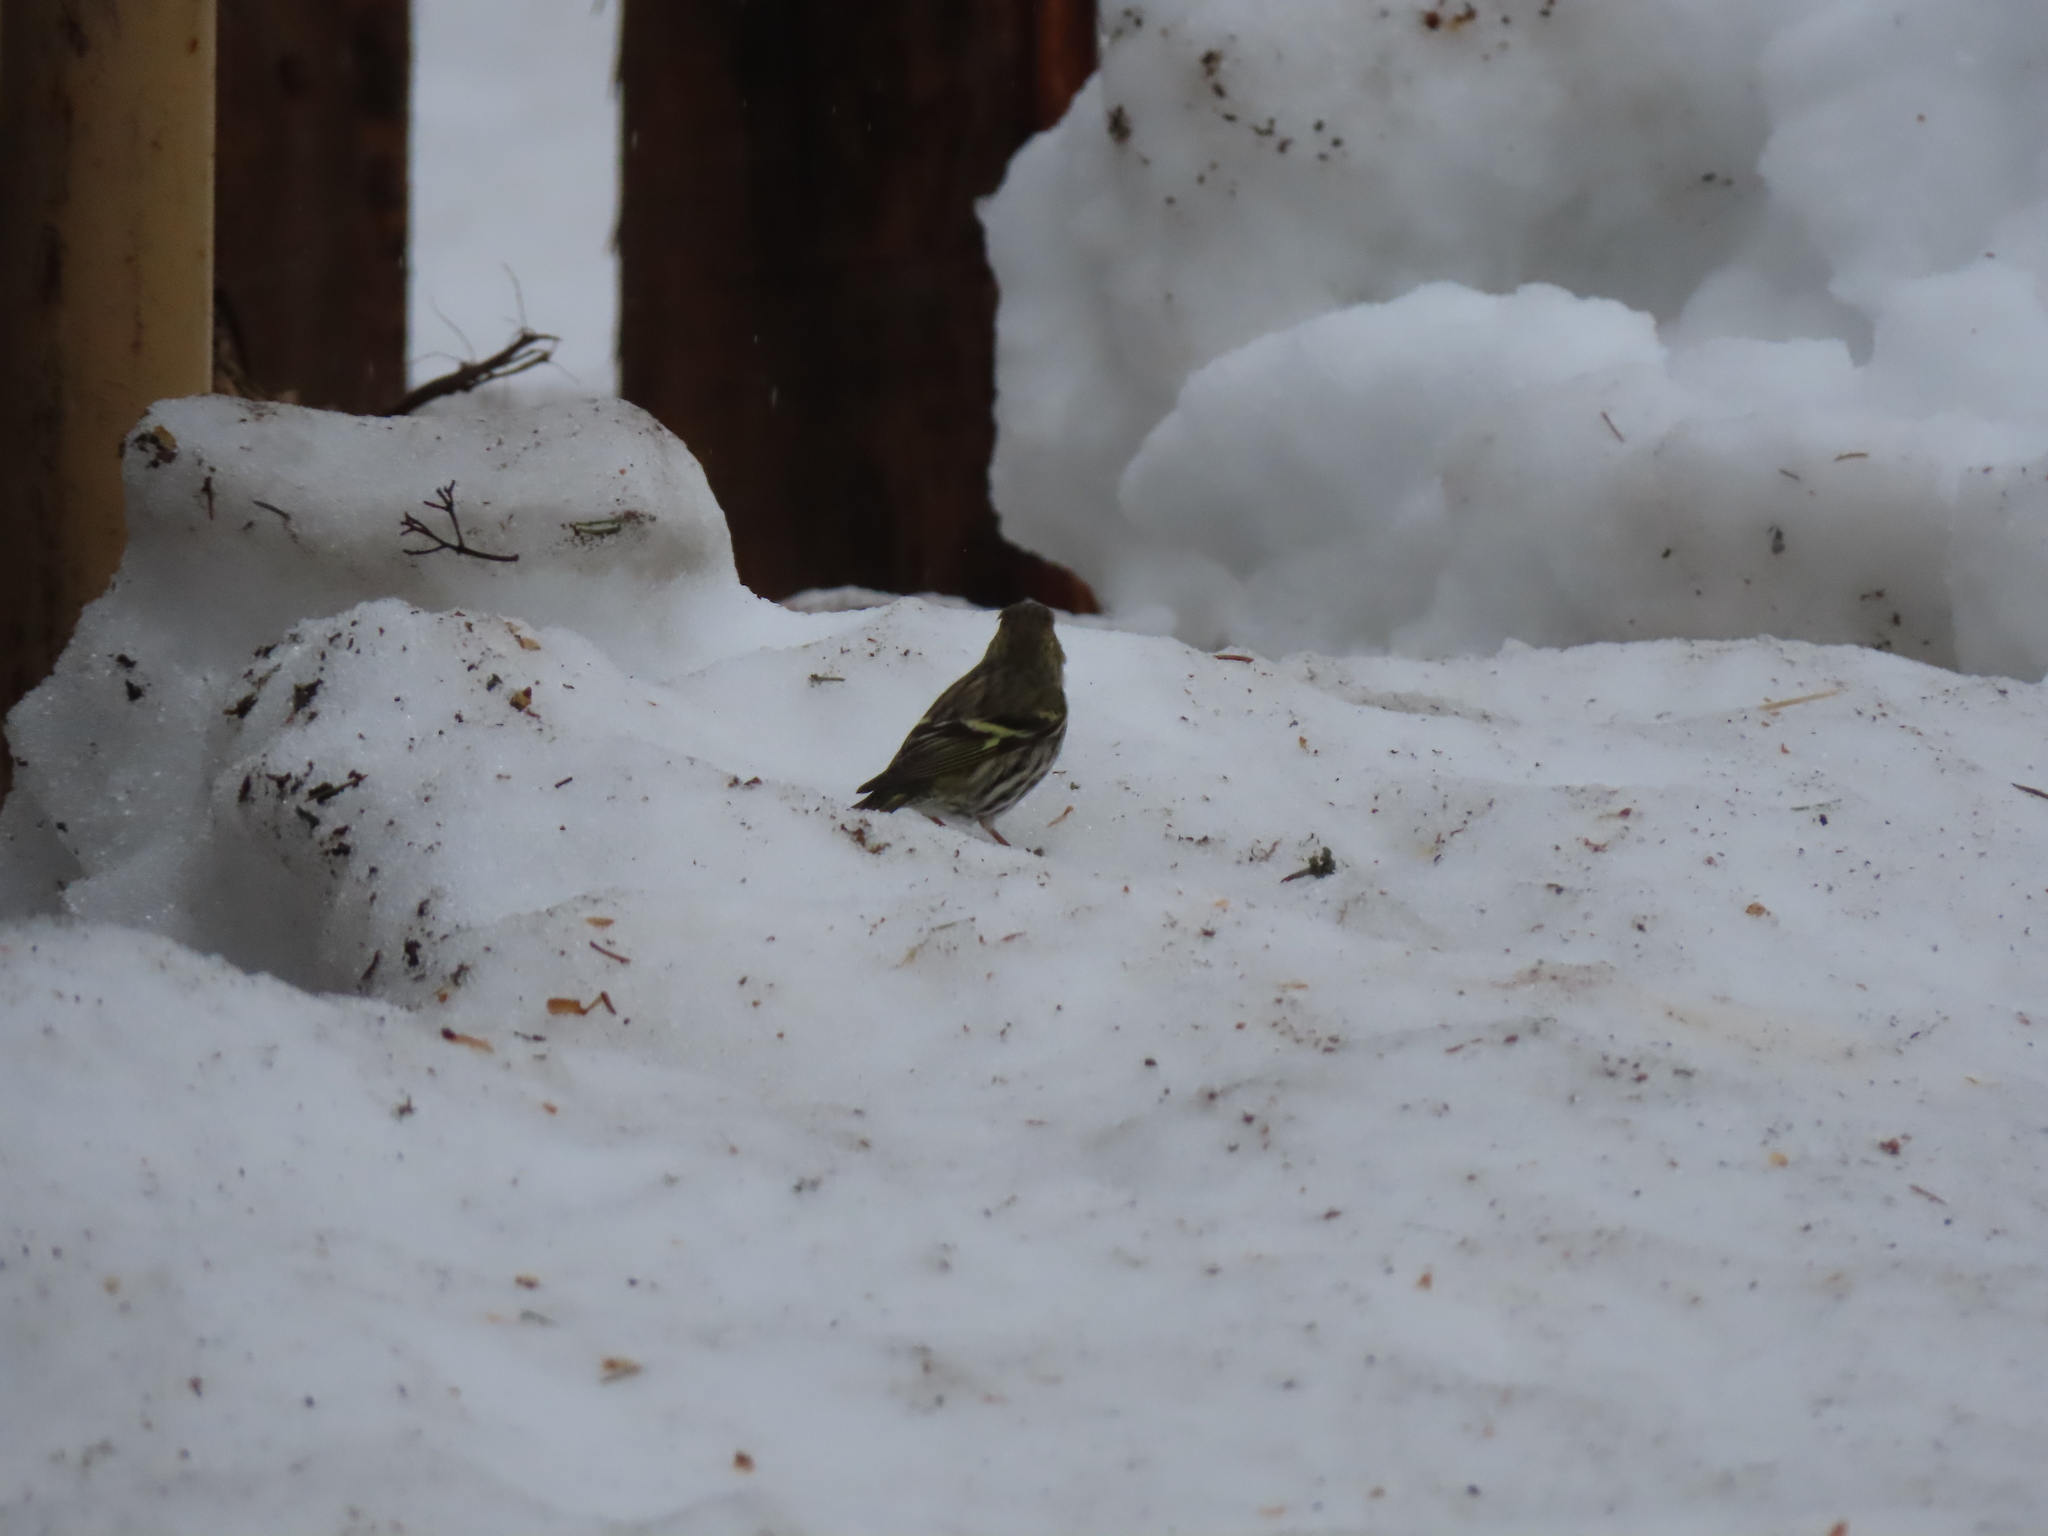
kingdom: Animalia
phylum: Chordata
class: Aves
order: Passeriformes
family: Fringillidae
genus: Spinus
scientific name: Spinus spinus
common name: Eurasian siskin
